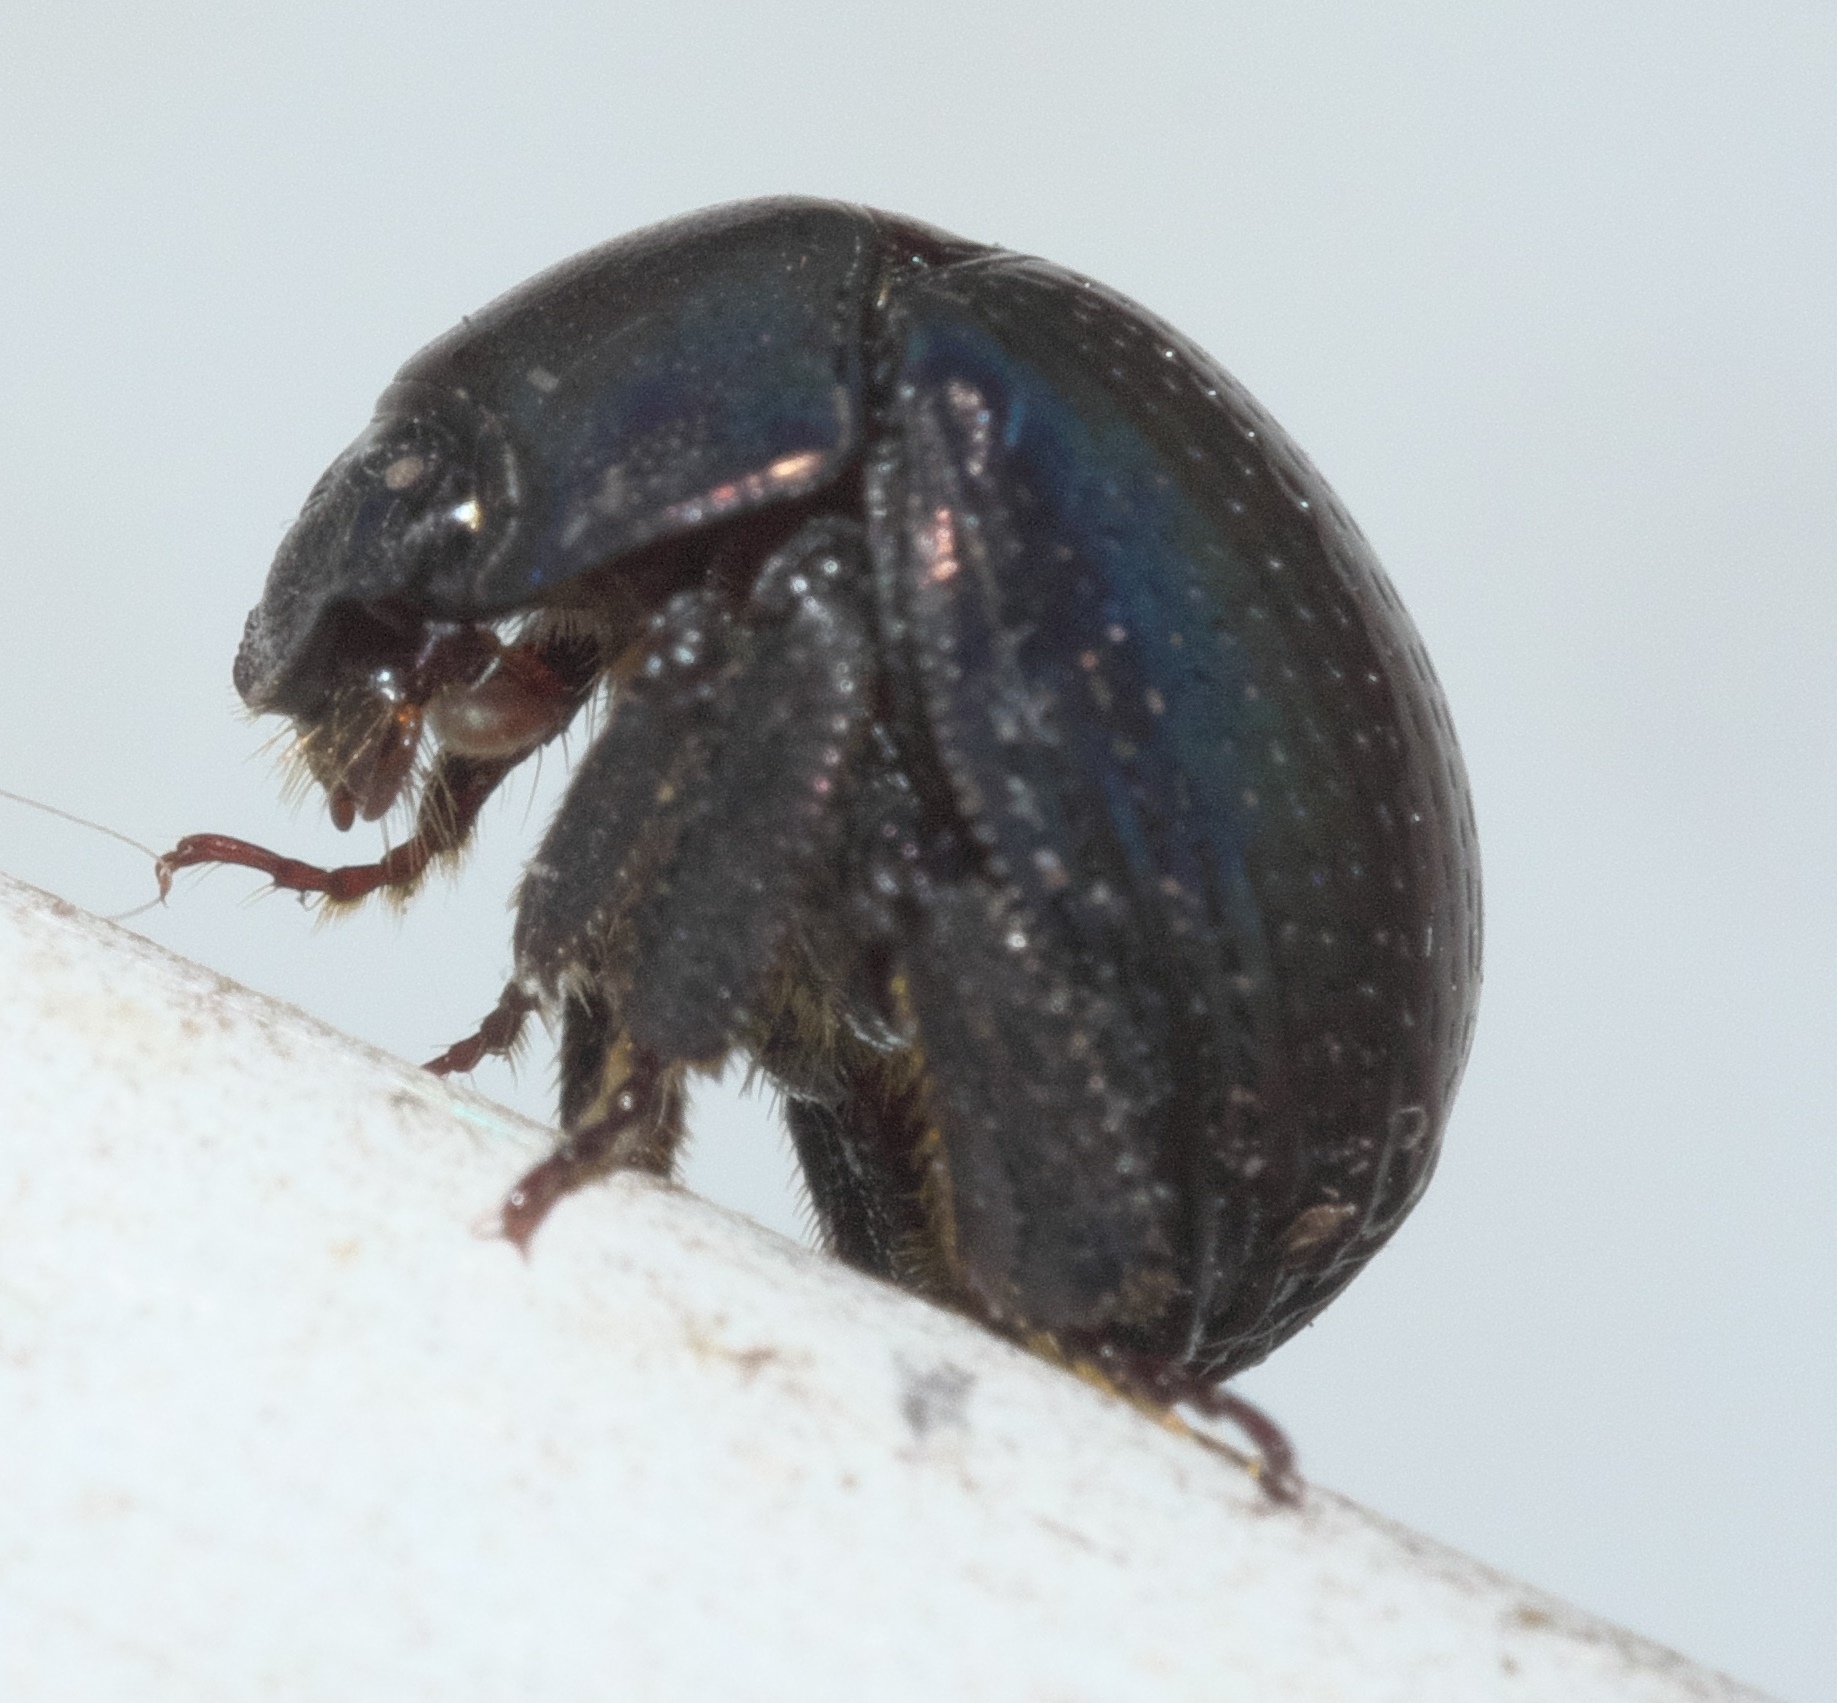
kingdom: Animalia
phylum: Arthropoda
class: Insecta
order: Coleoptera
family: Hybosoridae
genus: Germarostes
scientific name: Germarostes globosus
